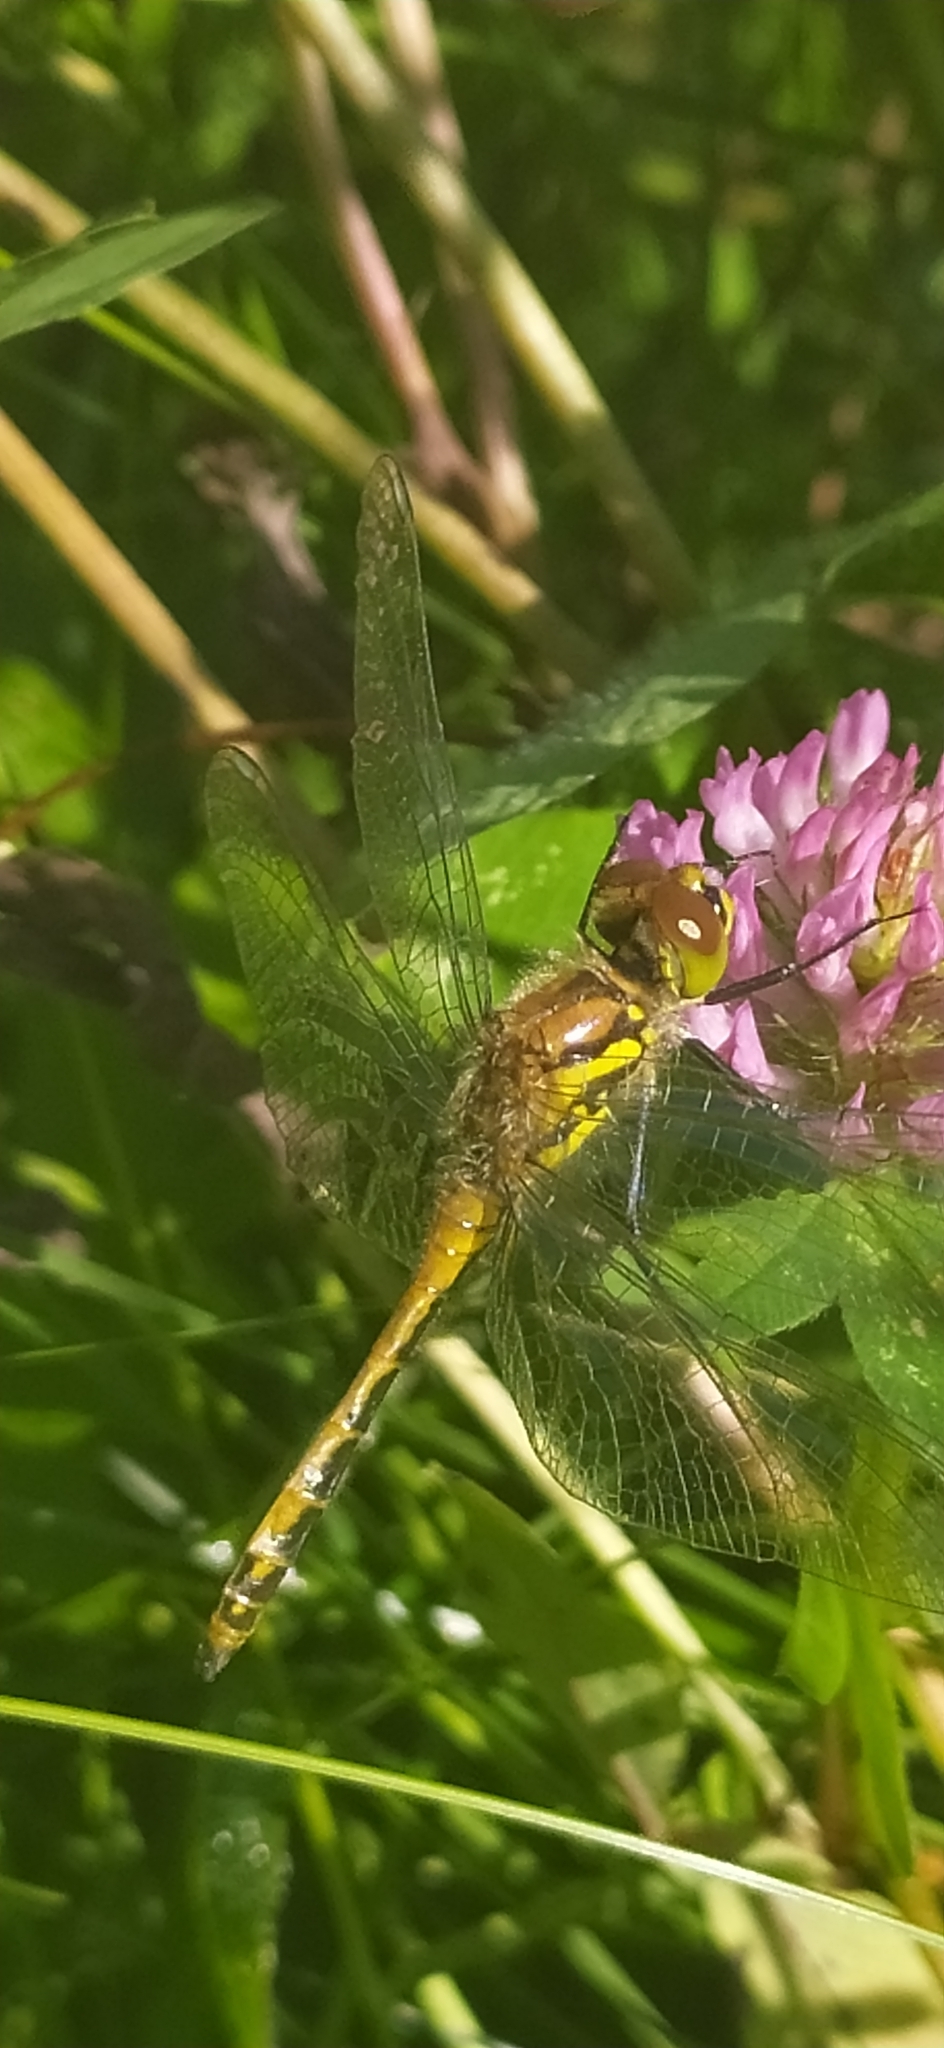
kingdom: Animalia
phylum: Arthropoda
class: Insecta
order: Odonata
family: Libellulidae
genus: Sympetrum
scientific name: Sympetrum danae
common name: Black darter
